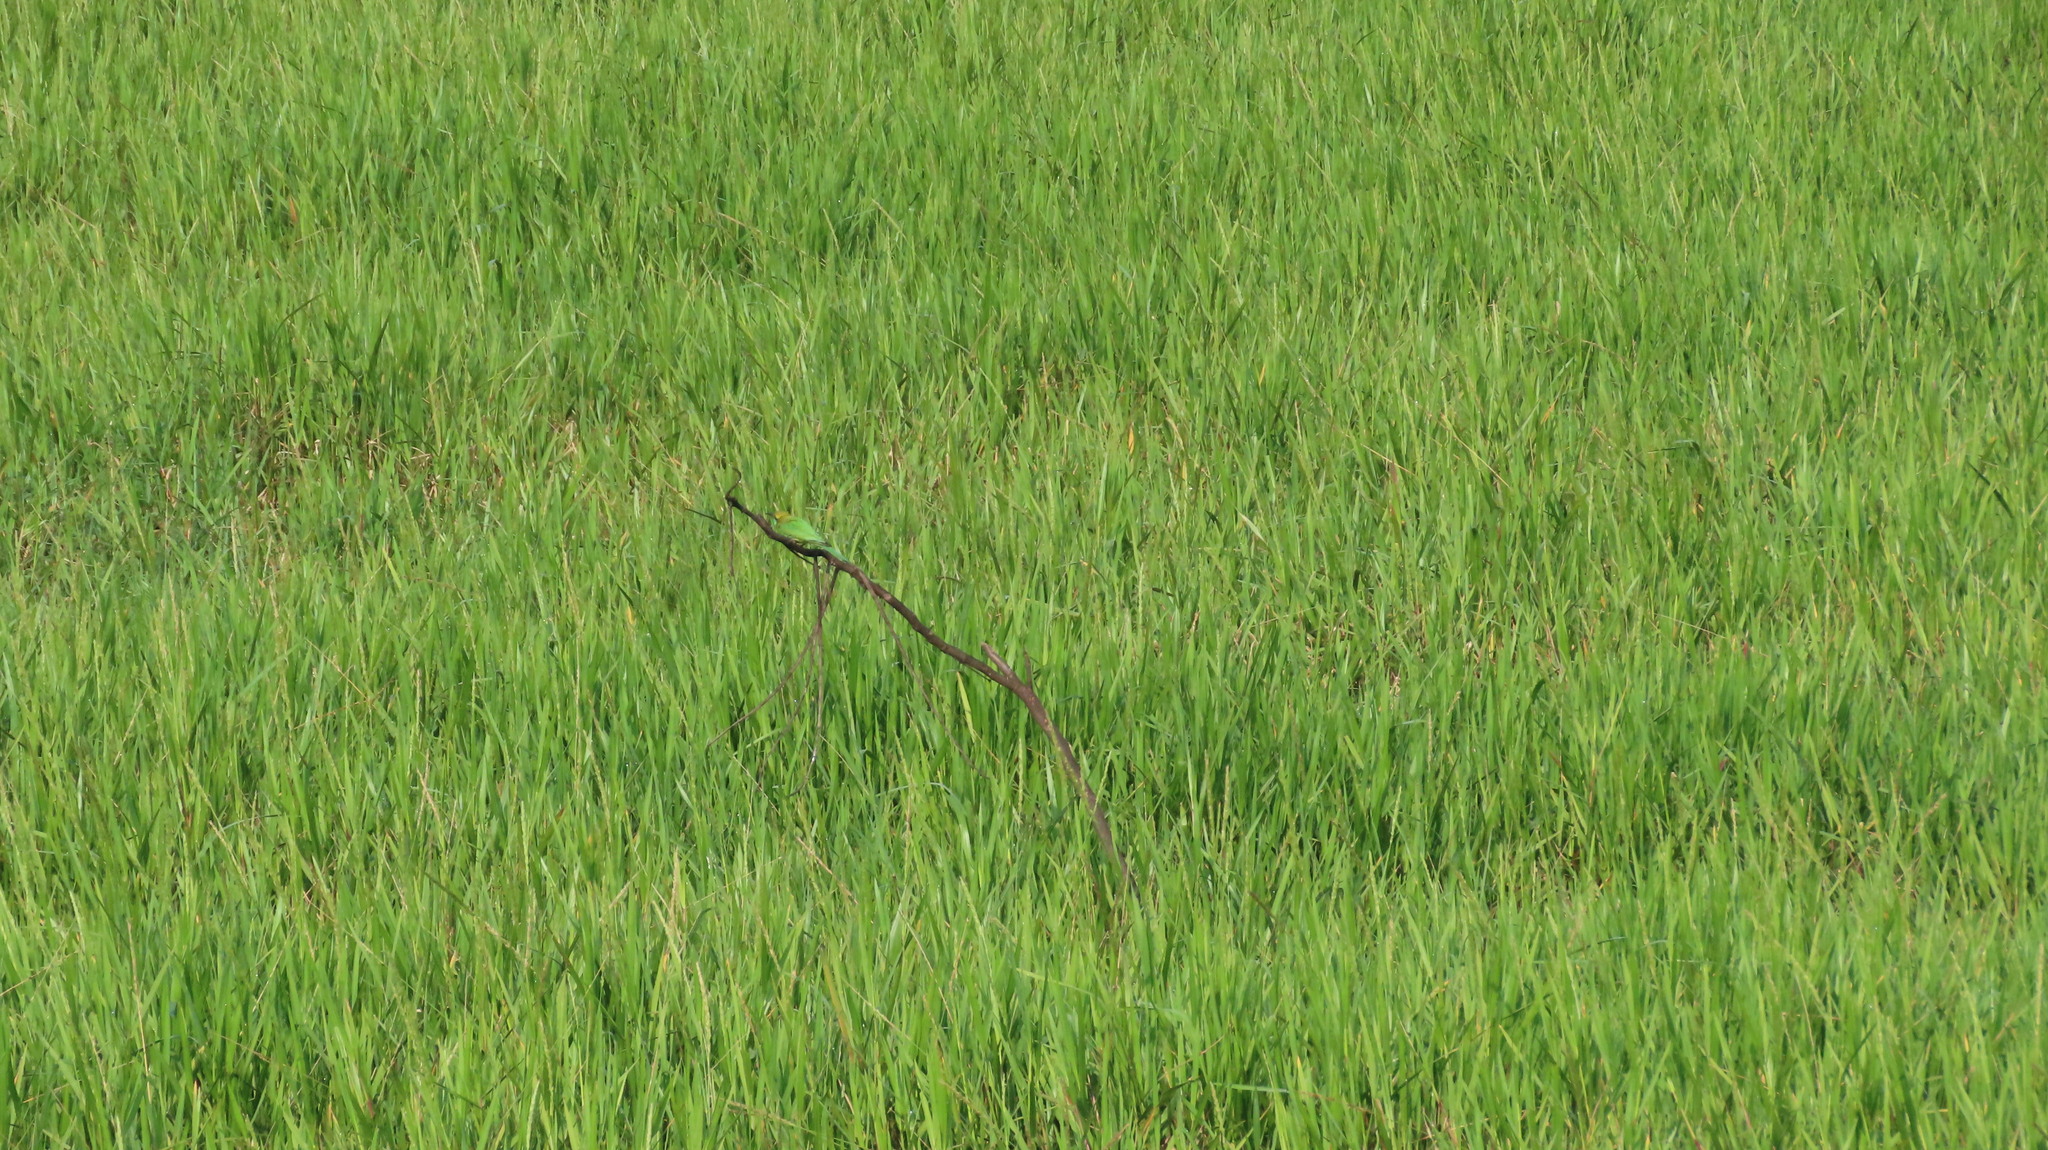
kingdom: Animalia
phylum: Chordata
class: Aves
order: Coraciiformes
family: Meropidae
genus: Merops
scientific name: Merops orientalis
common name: Green bee-eater
